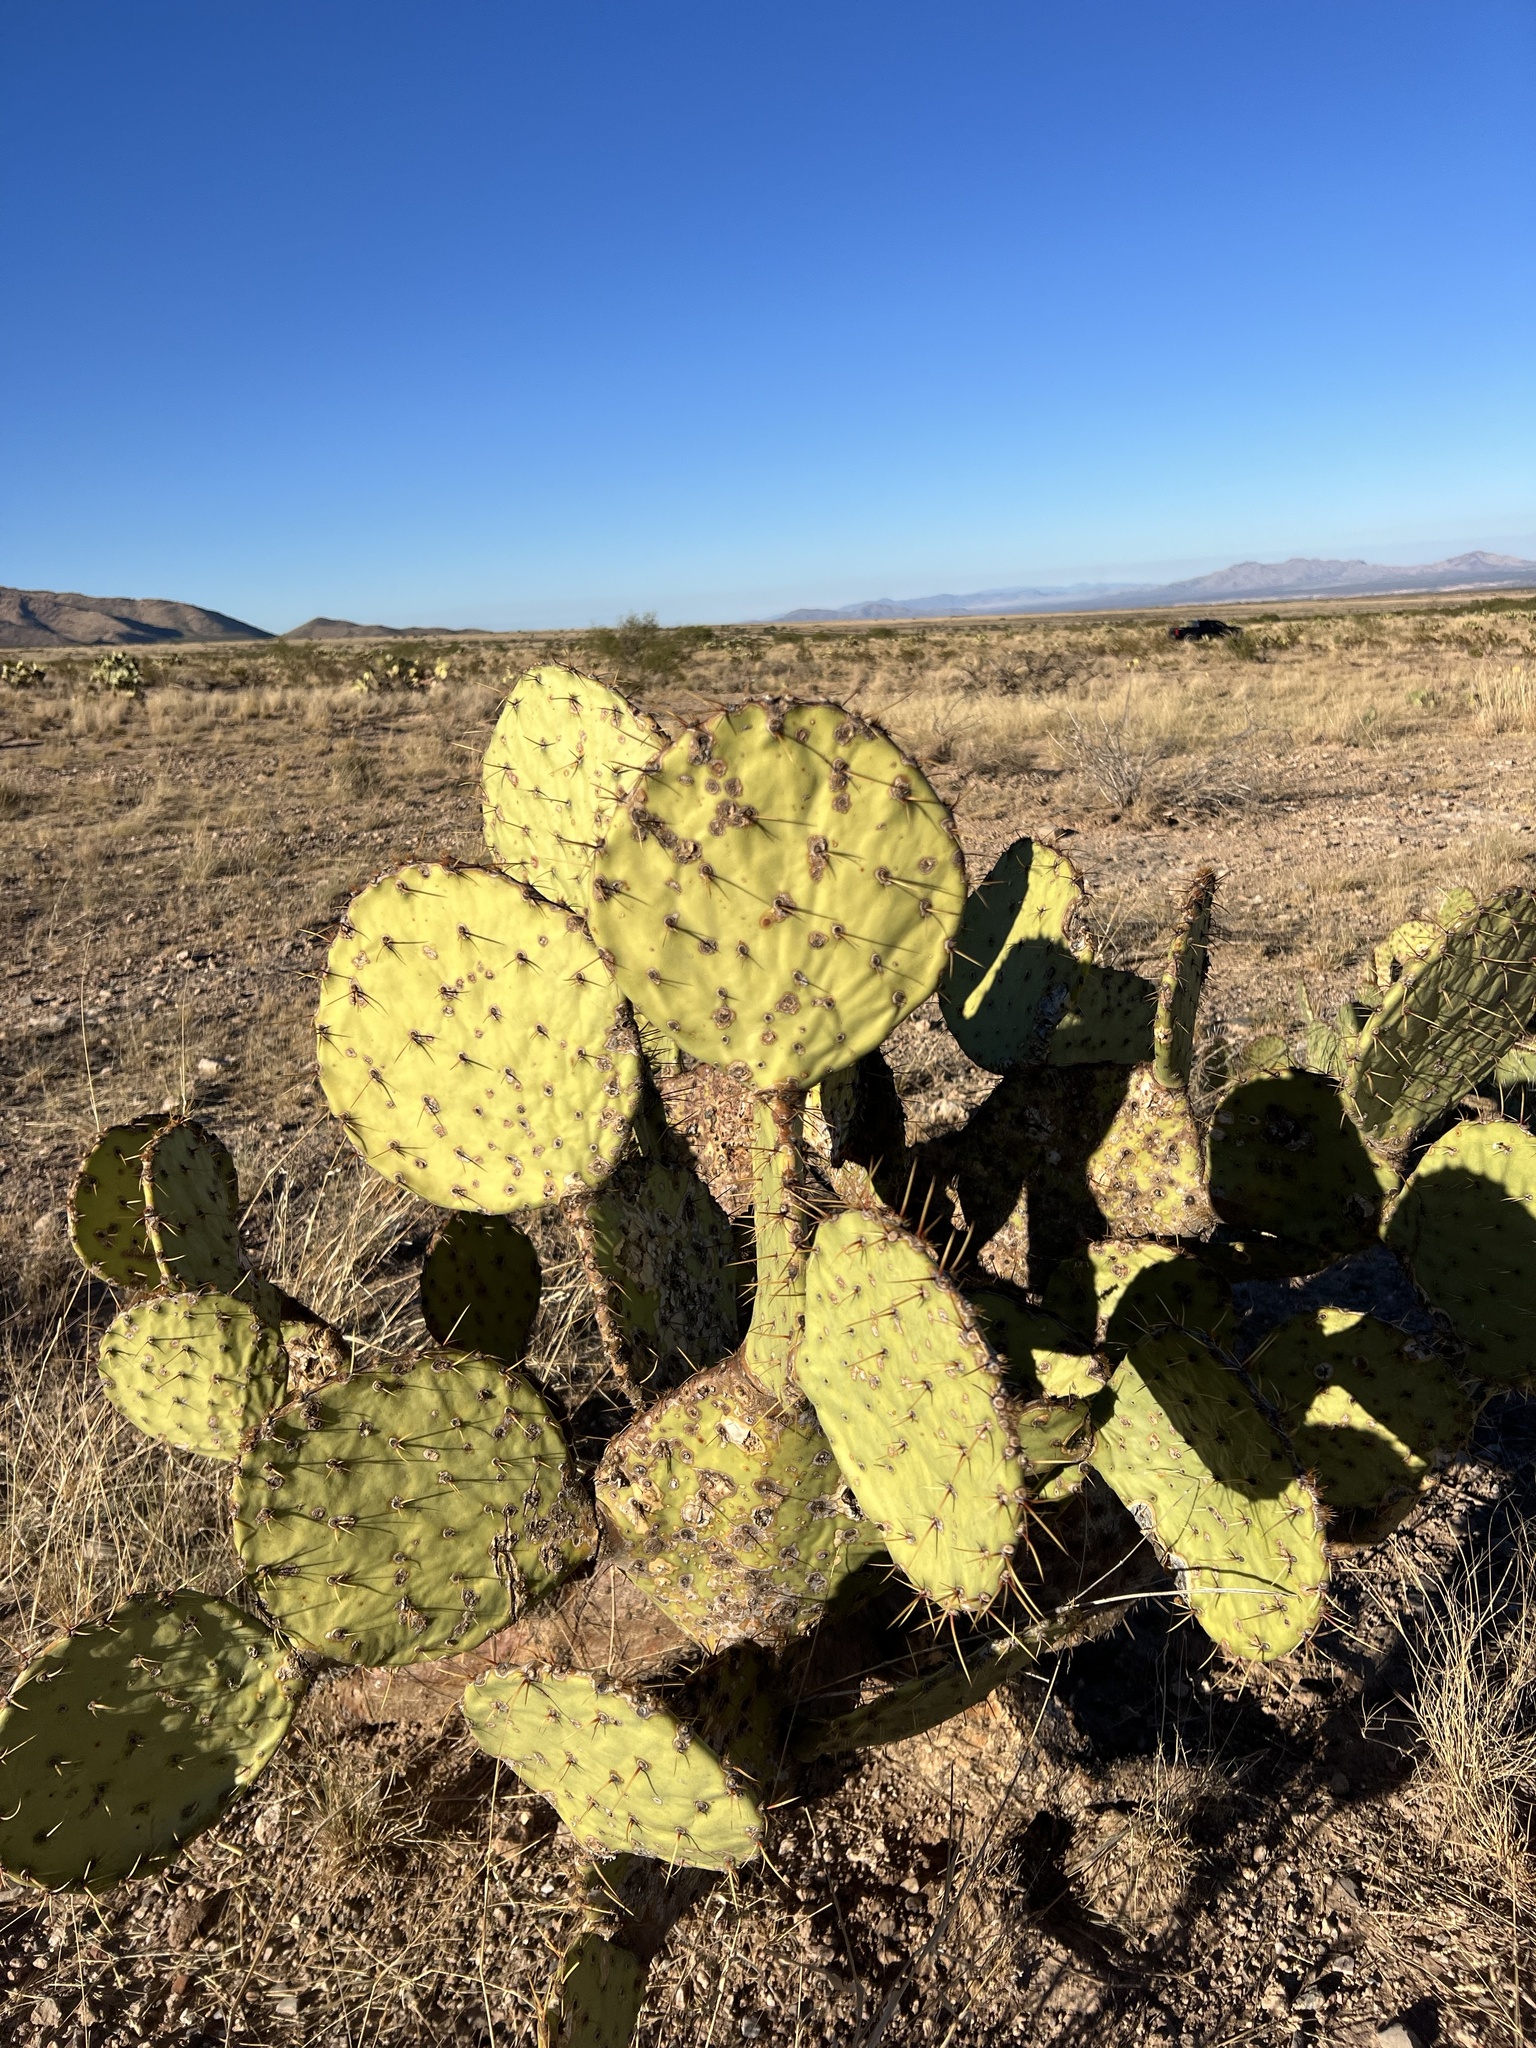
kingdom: Plantae
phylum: Tracheophyta
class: Magnoliopsida
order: Caryophyllales
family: Cactaceae
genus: Opuntia
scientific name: Opuntia engelmannii
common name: Cactus-apple
